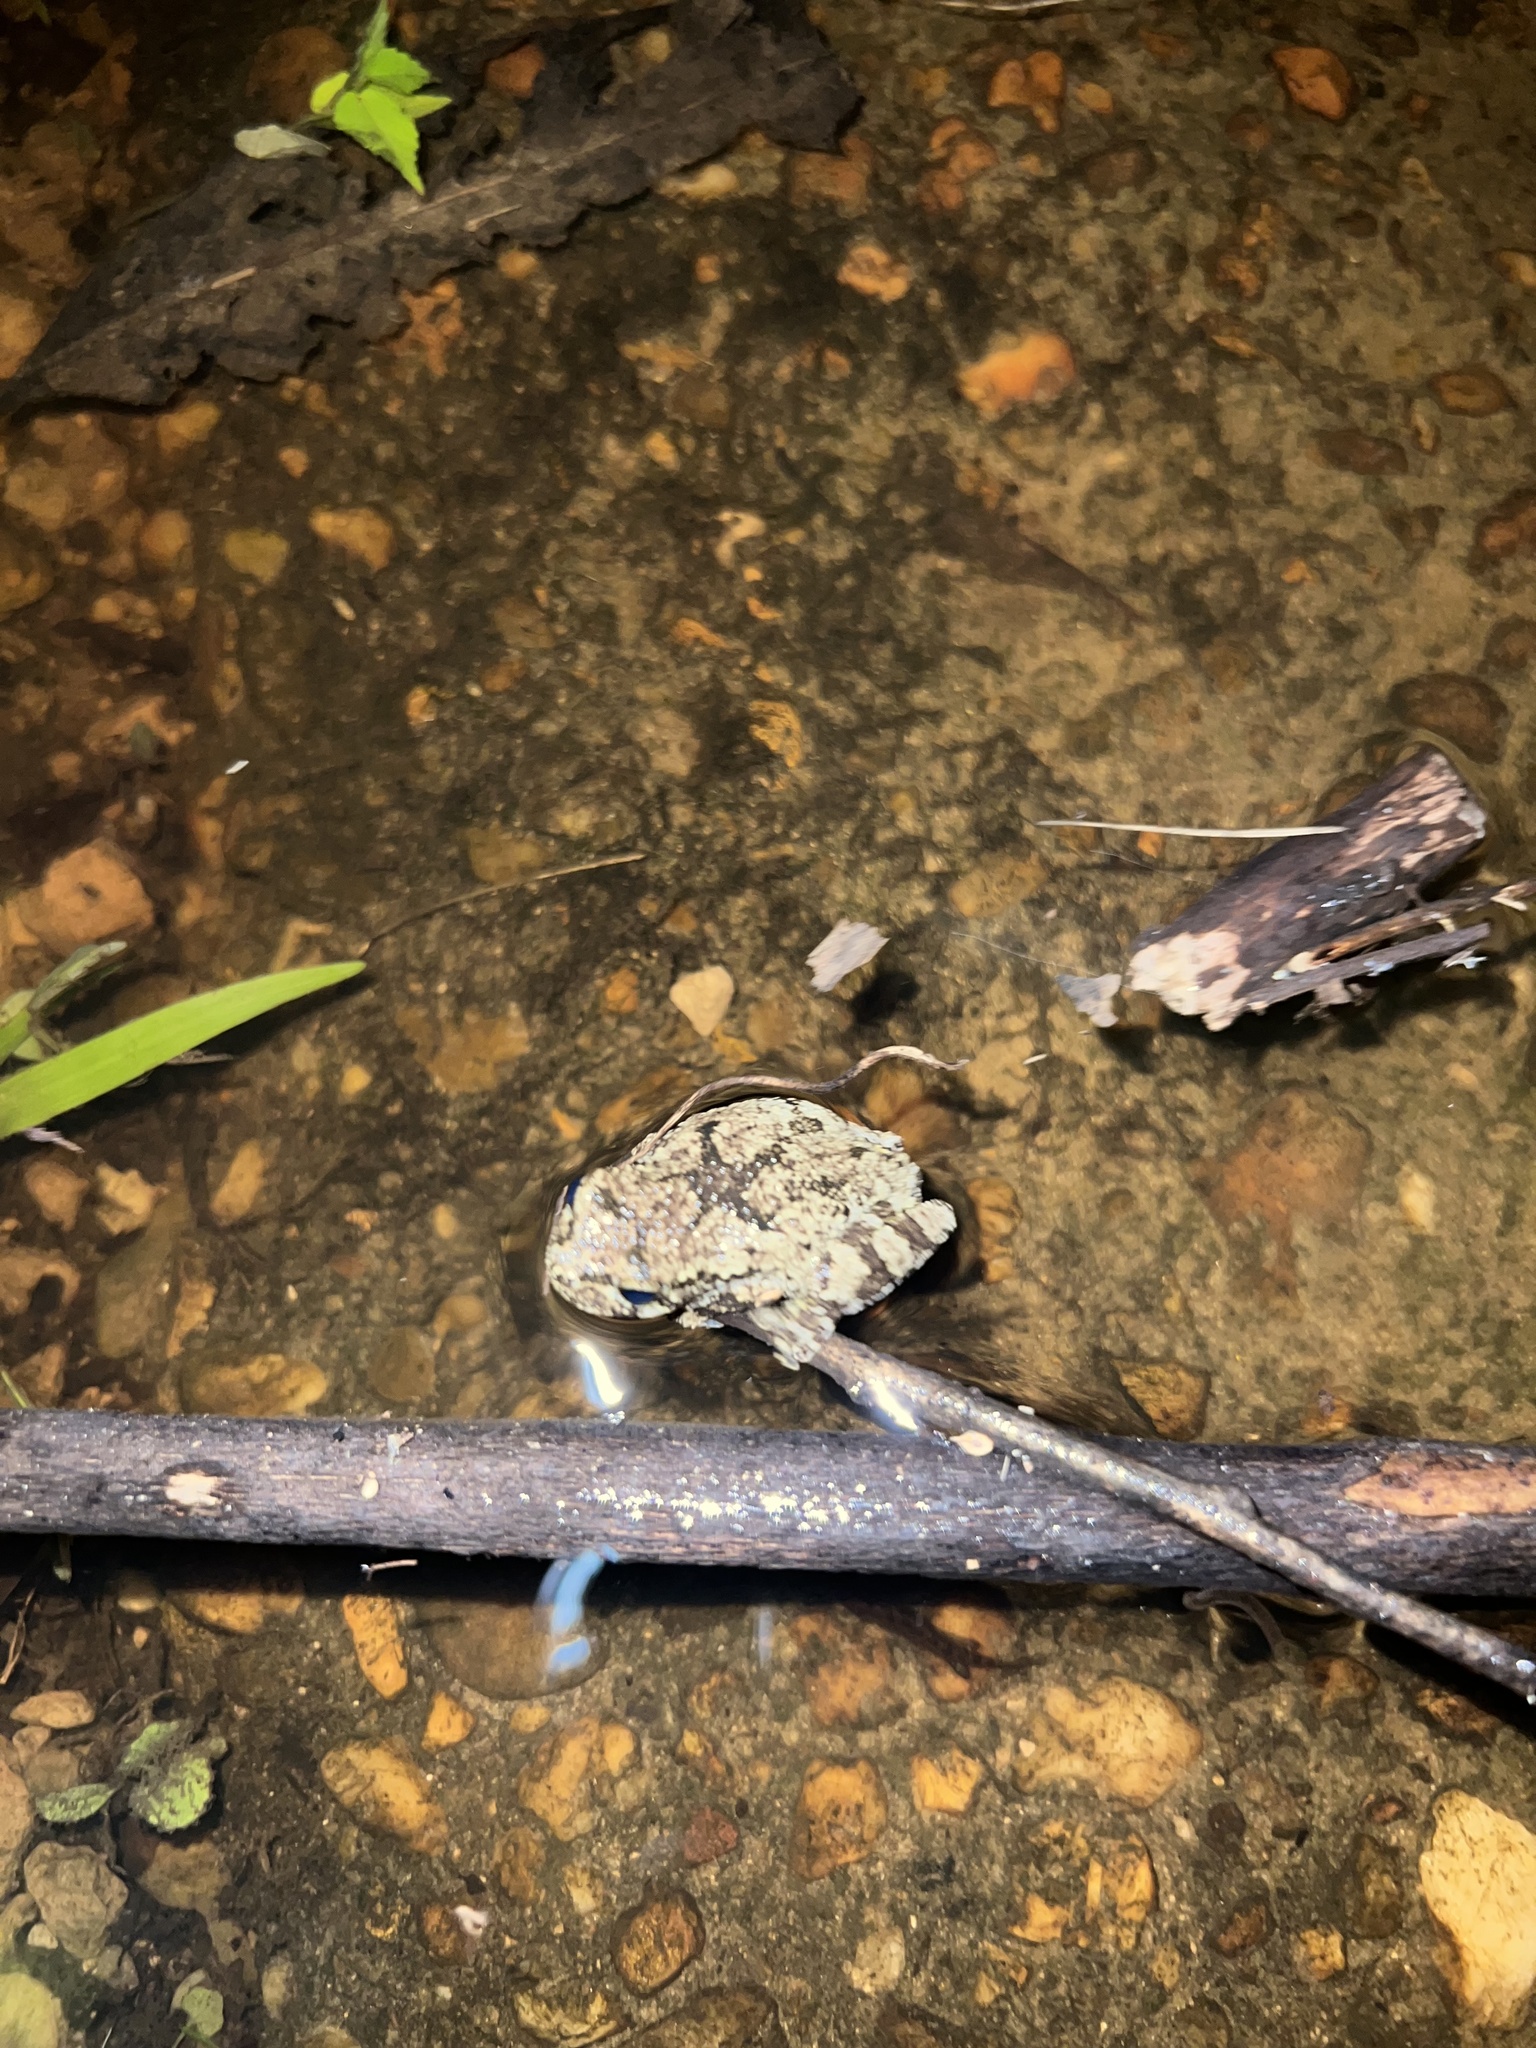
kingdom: Animalia
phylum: Chordata
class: Amphibia
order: Anura
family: Hylidae
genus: Dryophytes
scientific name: Dryophytes chrysoscelis
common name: Cope's gray treefrog
